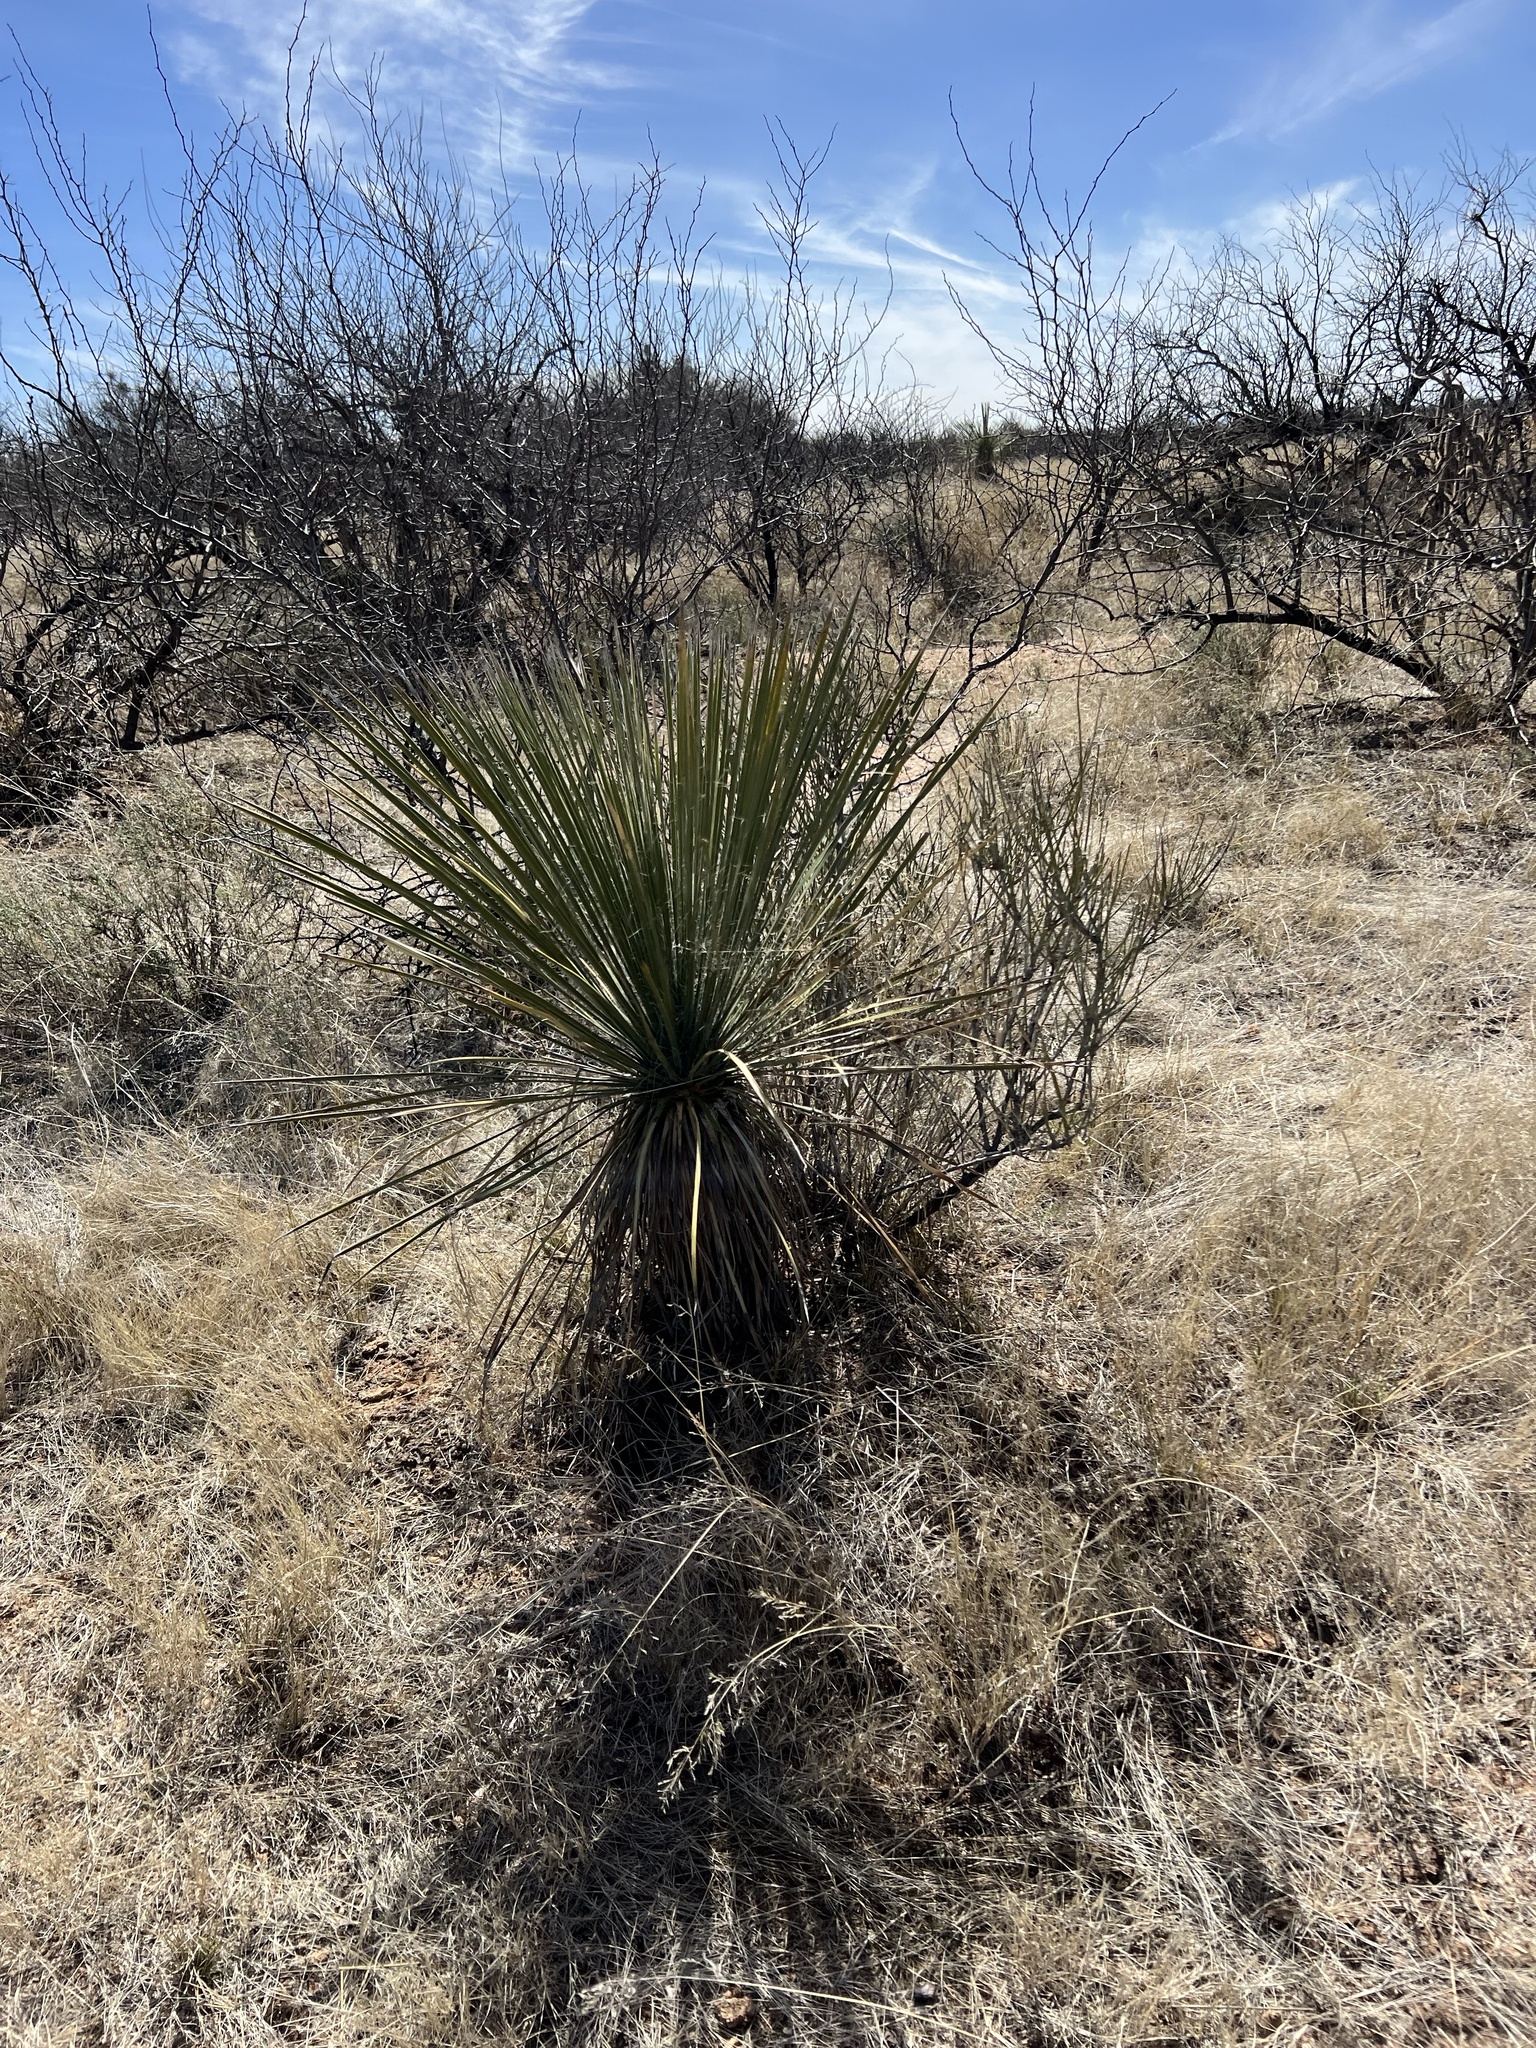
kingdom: Plantae
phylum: Tracheophyta
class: Liliopsida
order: Asparagales
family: Asparagaceae
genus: Yucca
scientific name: Yucca elata
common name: Palmella
